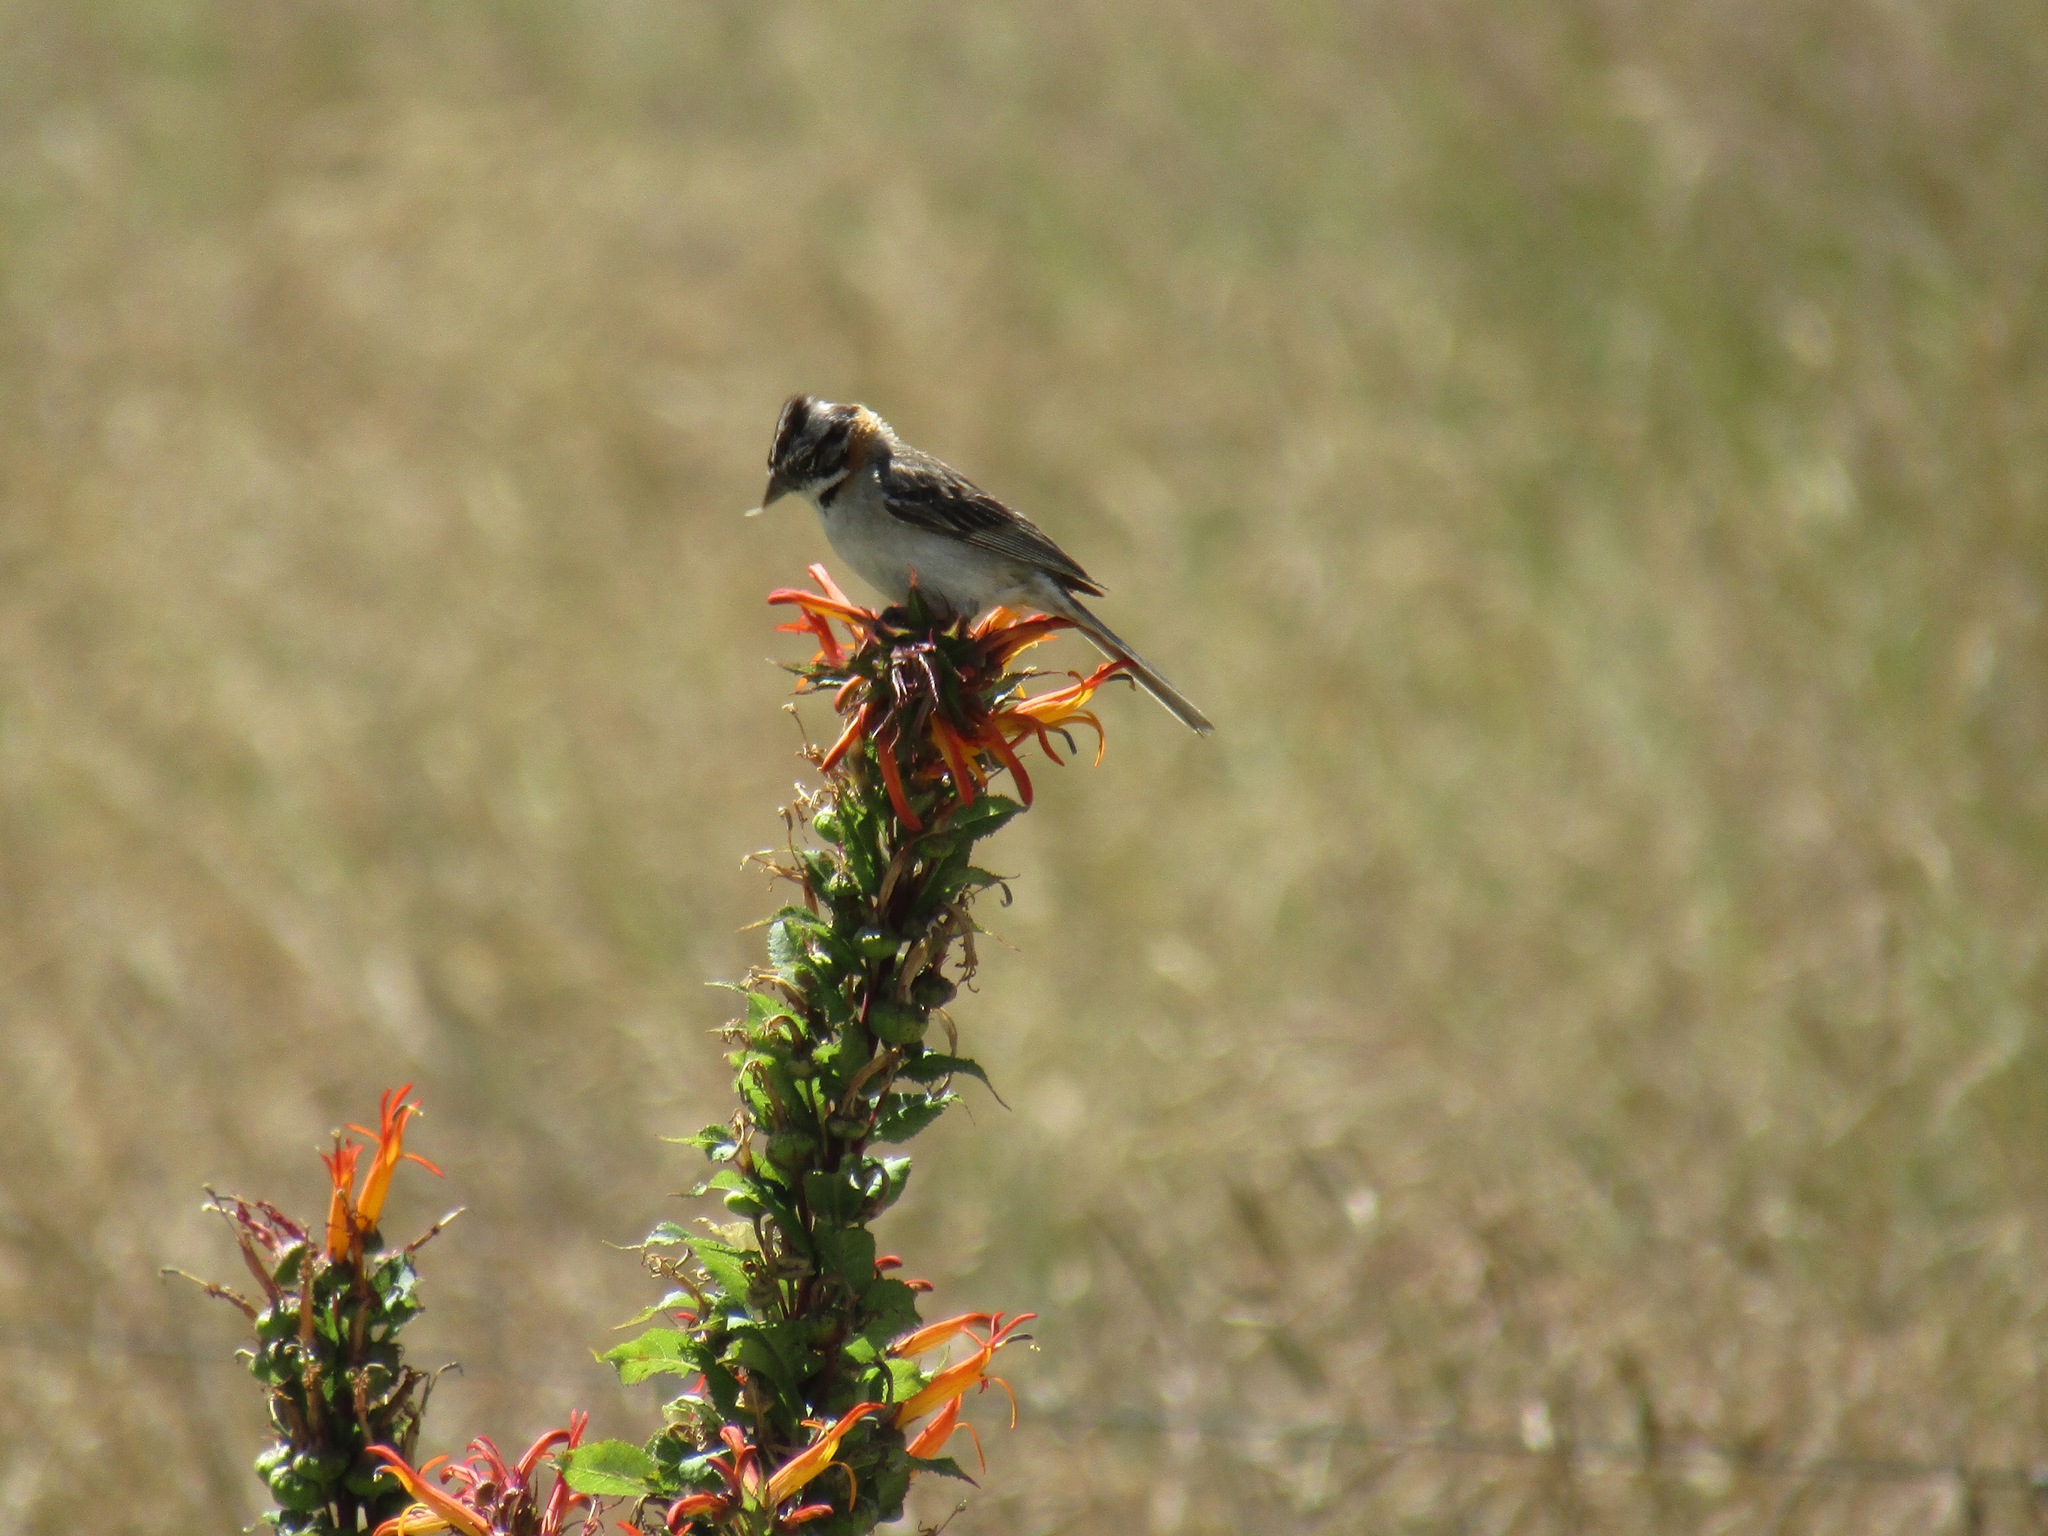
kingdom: Animalia
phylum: Chordata
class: Aves
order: Passeriformes
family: Passerellidae
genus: Zonotrichia
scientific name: Zonotrichia capensis
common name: Rufous-collared sparrow
